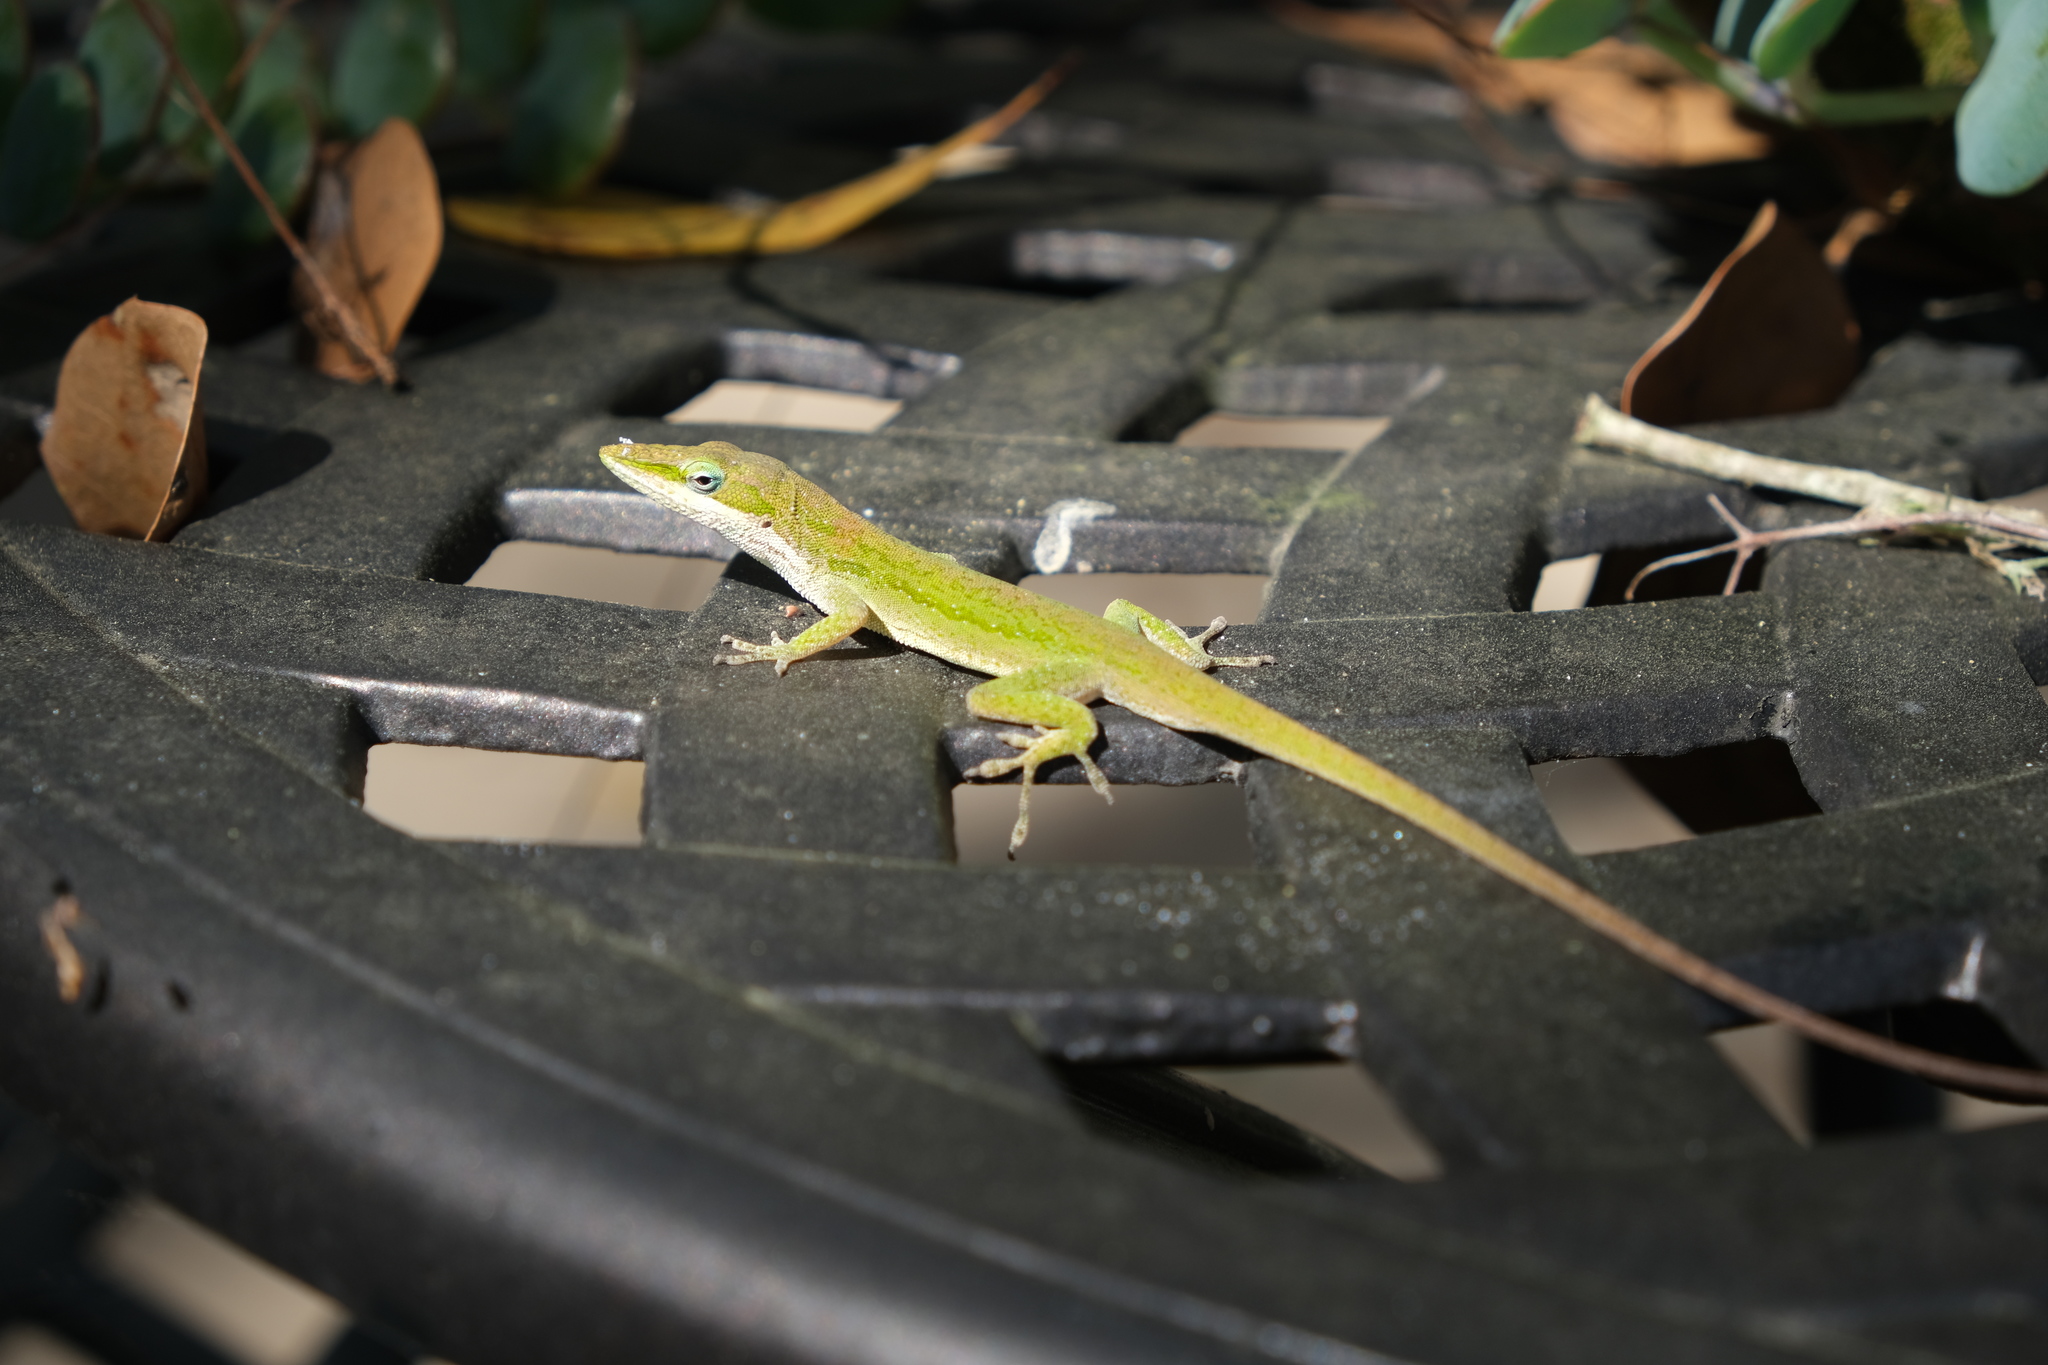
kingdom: Animalia
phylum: Chordata
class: Squamata
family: Dactyloidae
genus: Anolis
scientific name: Anolis carolinensis
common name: Green anole
